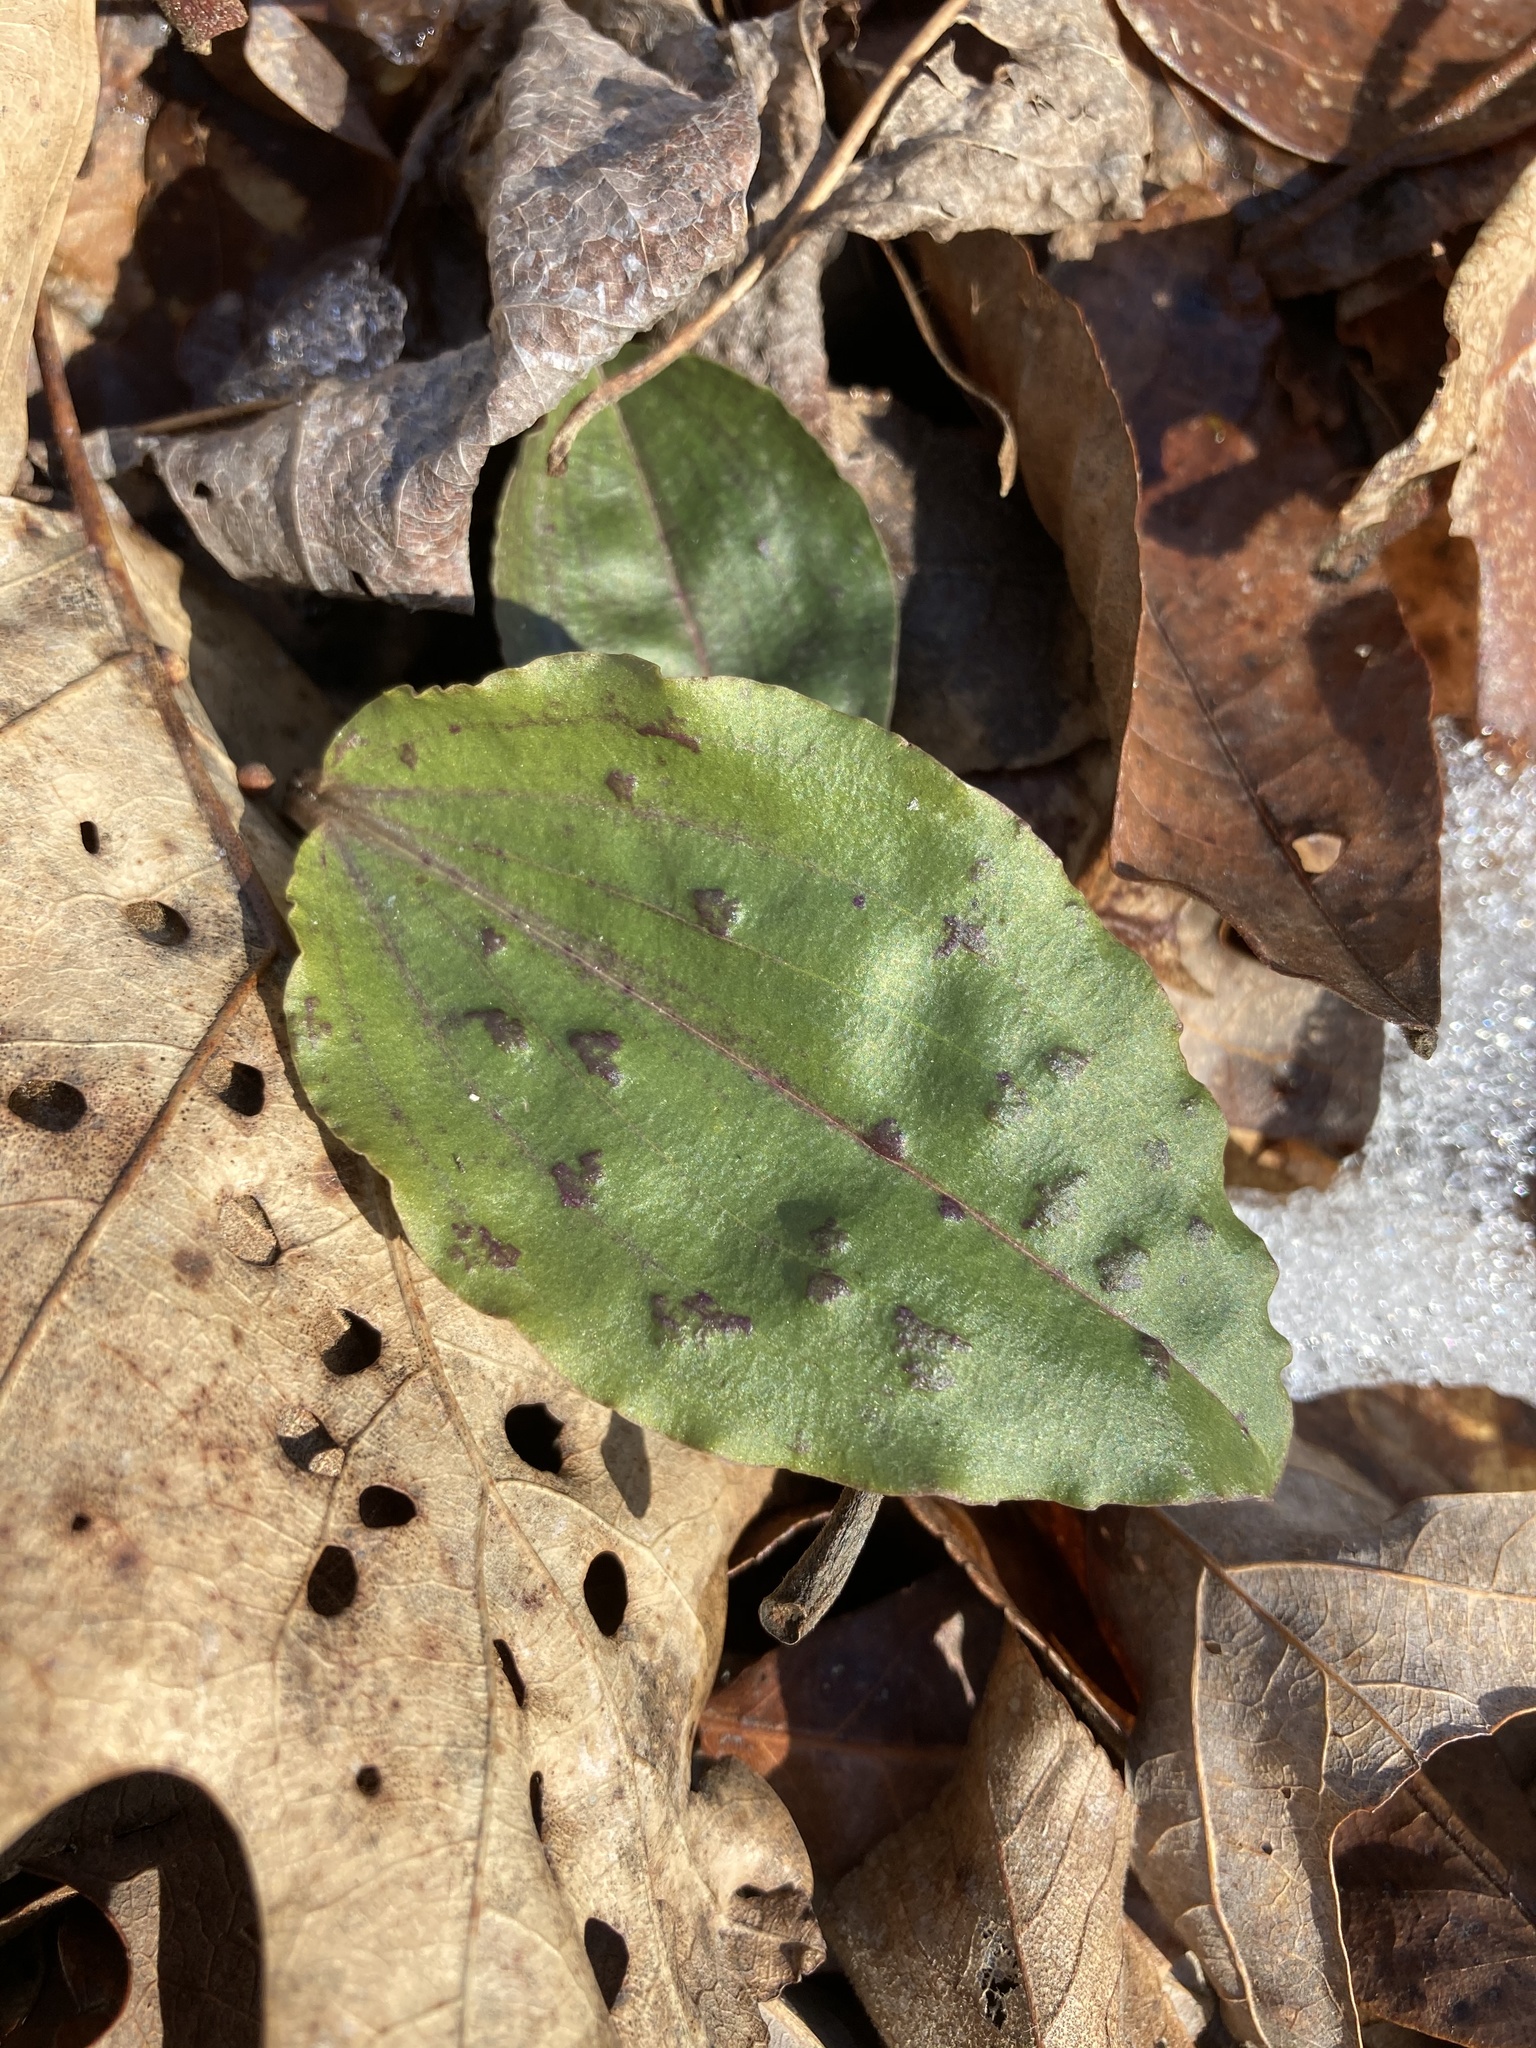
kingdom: Plantae
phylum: Tracheophyta
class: Liliopsida
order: Asparagales
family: Orchidaceae
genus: Tipularia
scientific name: Tipularia discolor
